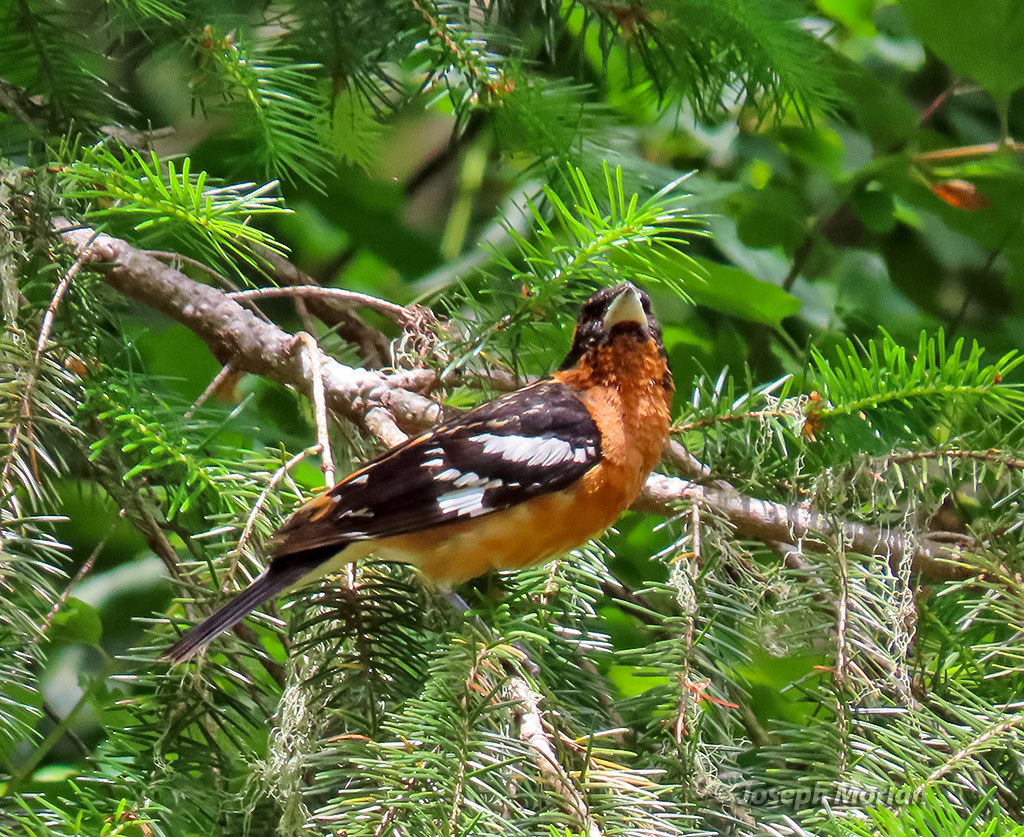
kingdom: Animalia
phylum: Chordata
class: Aves
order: Passeriformes
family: Cardinalidae
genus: Pheucticus
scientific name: Pheucticus melanocephalus
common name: Black-headed grosbeak
